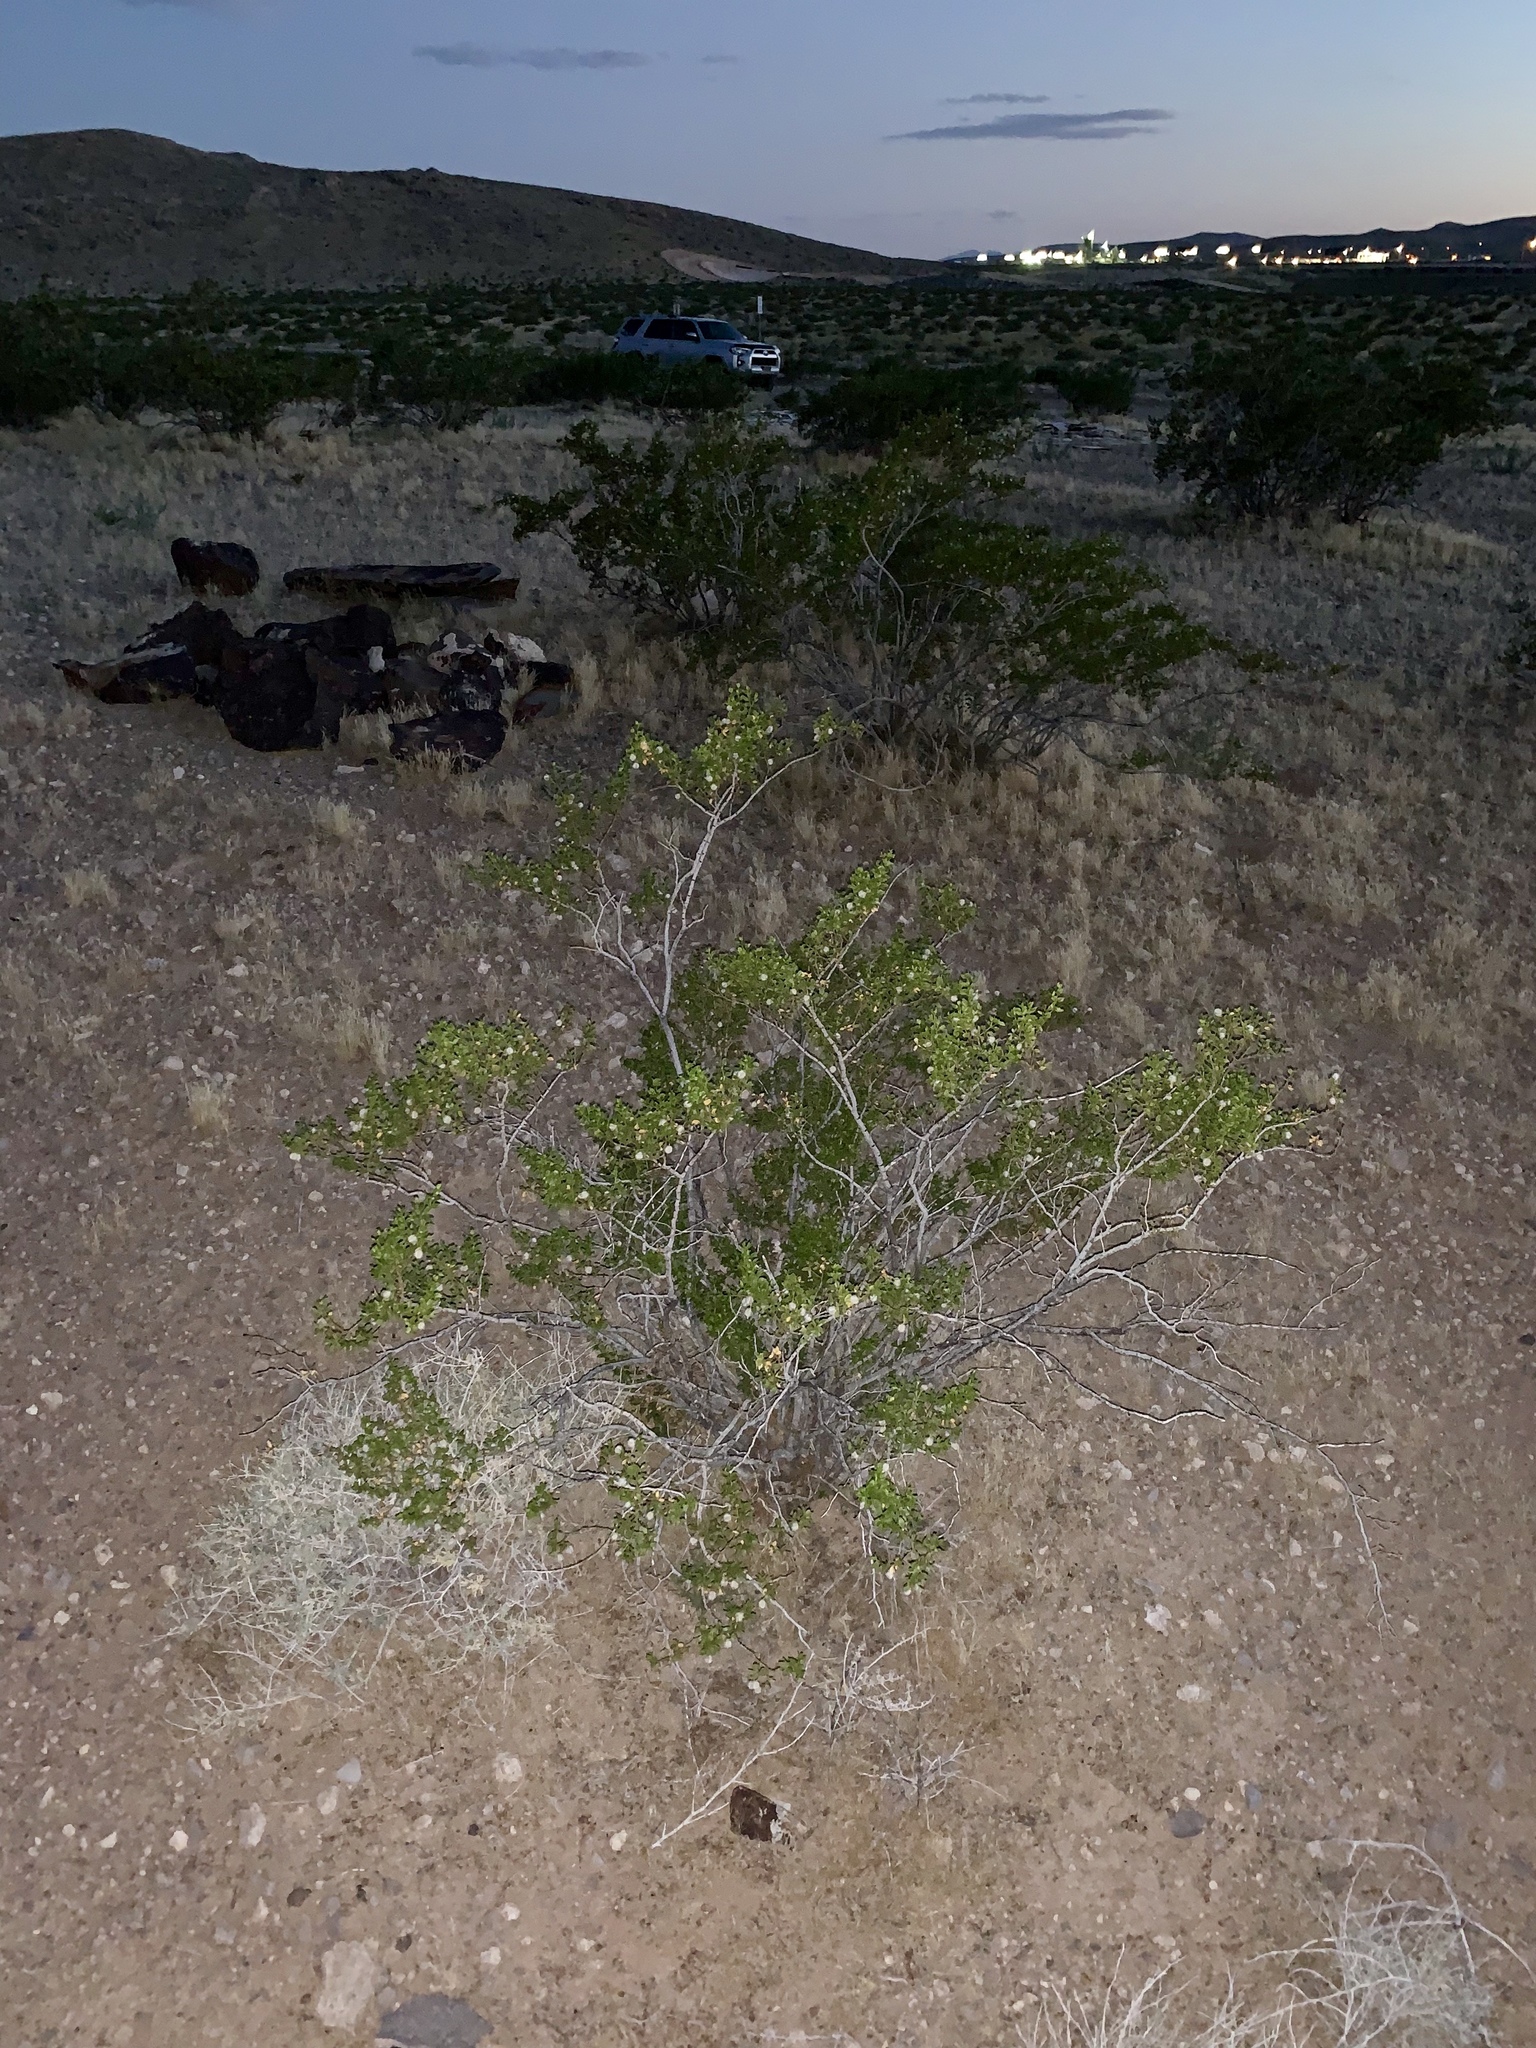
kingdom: Plantae
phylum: Tracheophyta
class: Magnoliopsida
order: Zygophyllales
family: Zygophyllaceae
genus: Larrea
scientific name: Larrea tridentata
